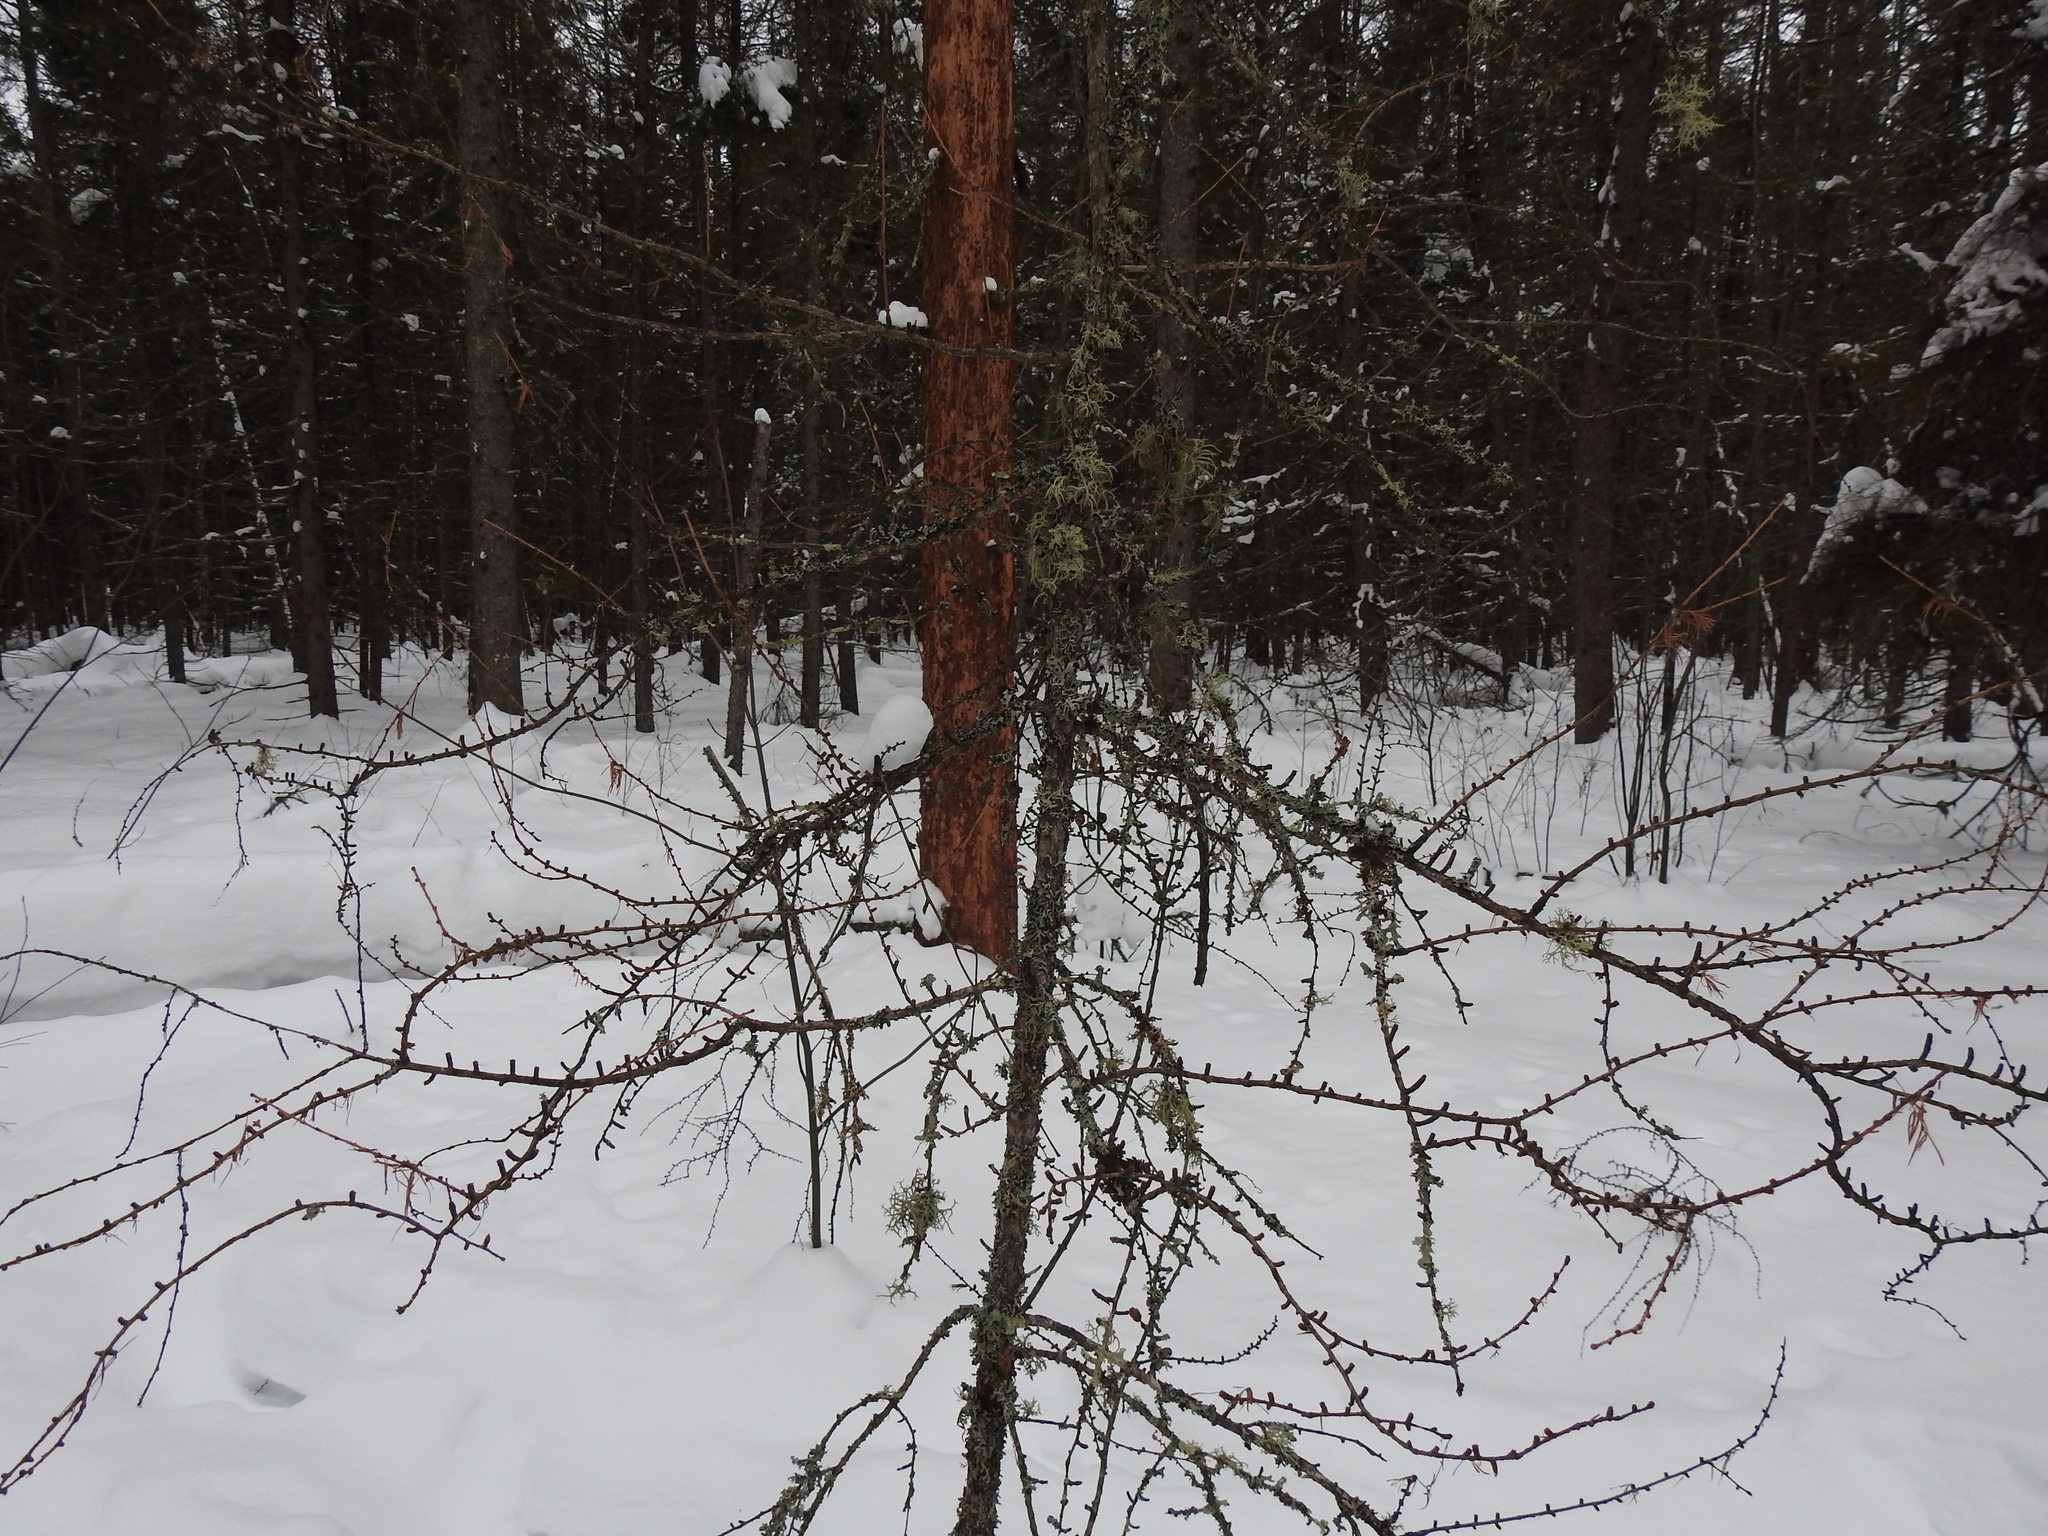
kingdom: Plantae
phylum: Tracheophyta
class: Pinopsida
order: Pinales
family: Pinaceae
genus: Larix
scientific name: Larix laricina
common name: American larch
